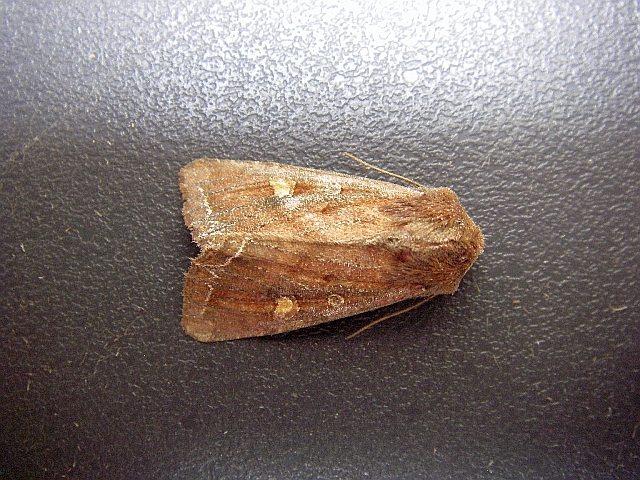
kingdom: Animalia
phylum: Arthropoda
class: Insecta
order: Lepidoptera
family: Noctuidae
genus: Lacanobia
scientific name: Lacanobia oleracea
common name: Bright-line brown-eye
